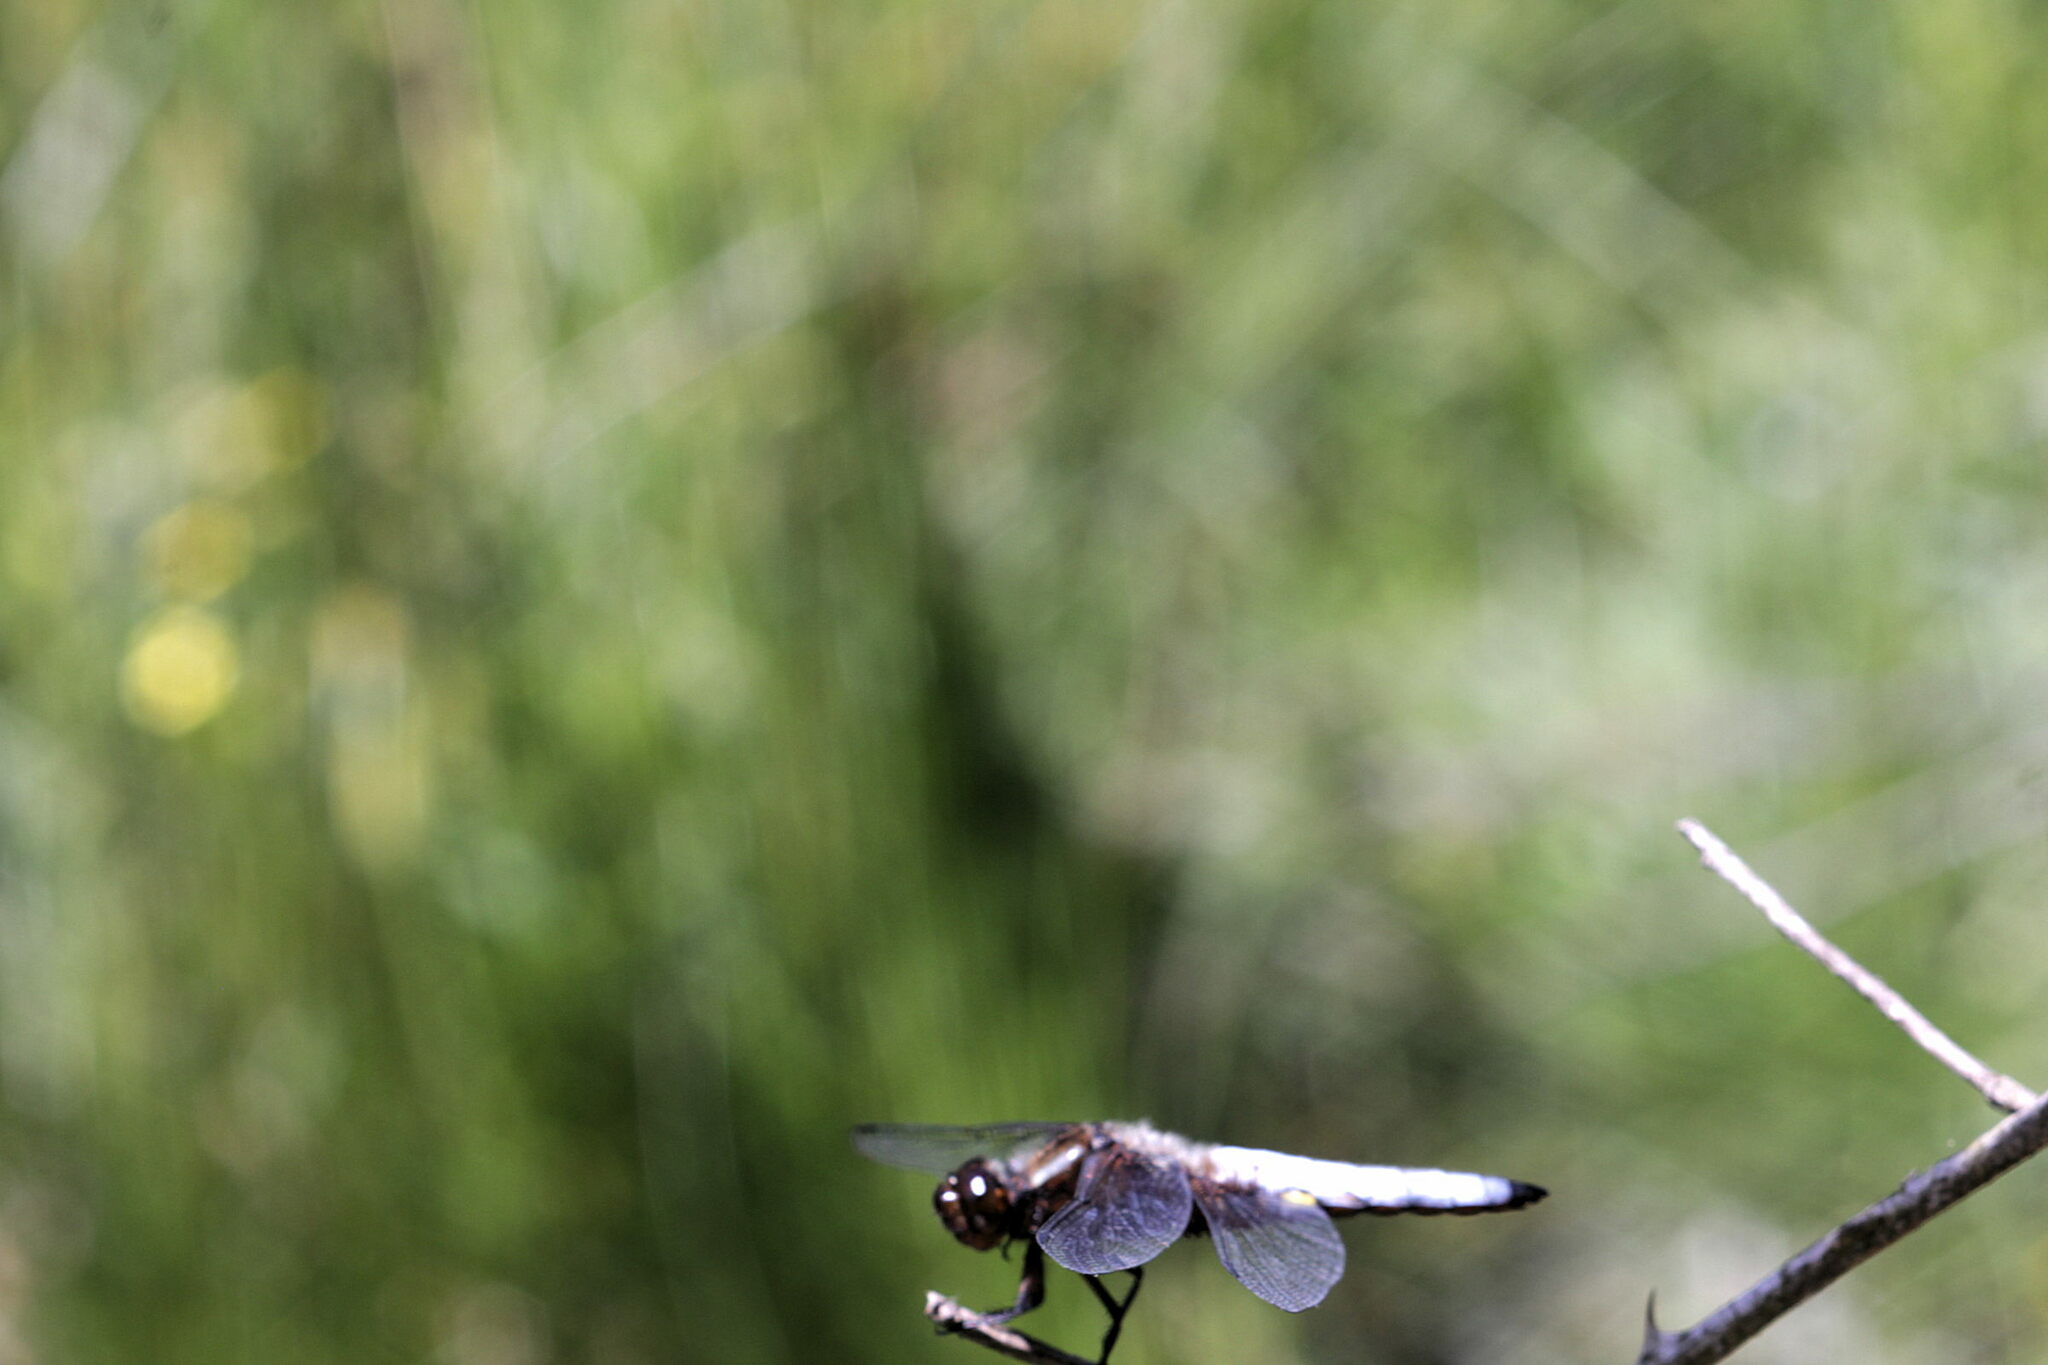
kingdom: Animalia
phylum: Arthropoda
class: Insecta
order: Odonata
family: Libellulidae
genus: Libellula
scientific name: Libellula depressa
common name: Broad-bodied chaser
